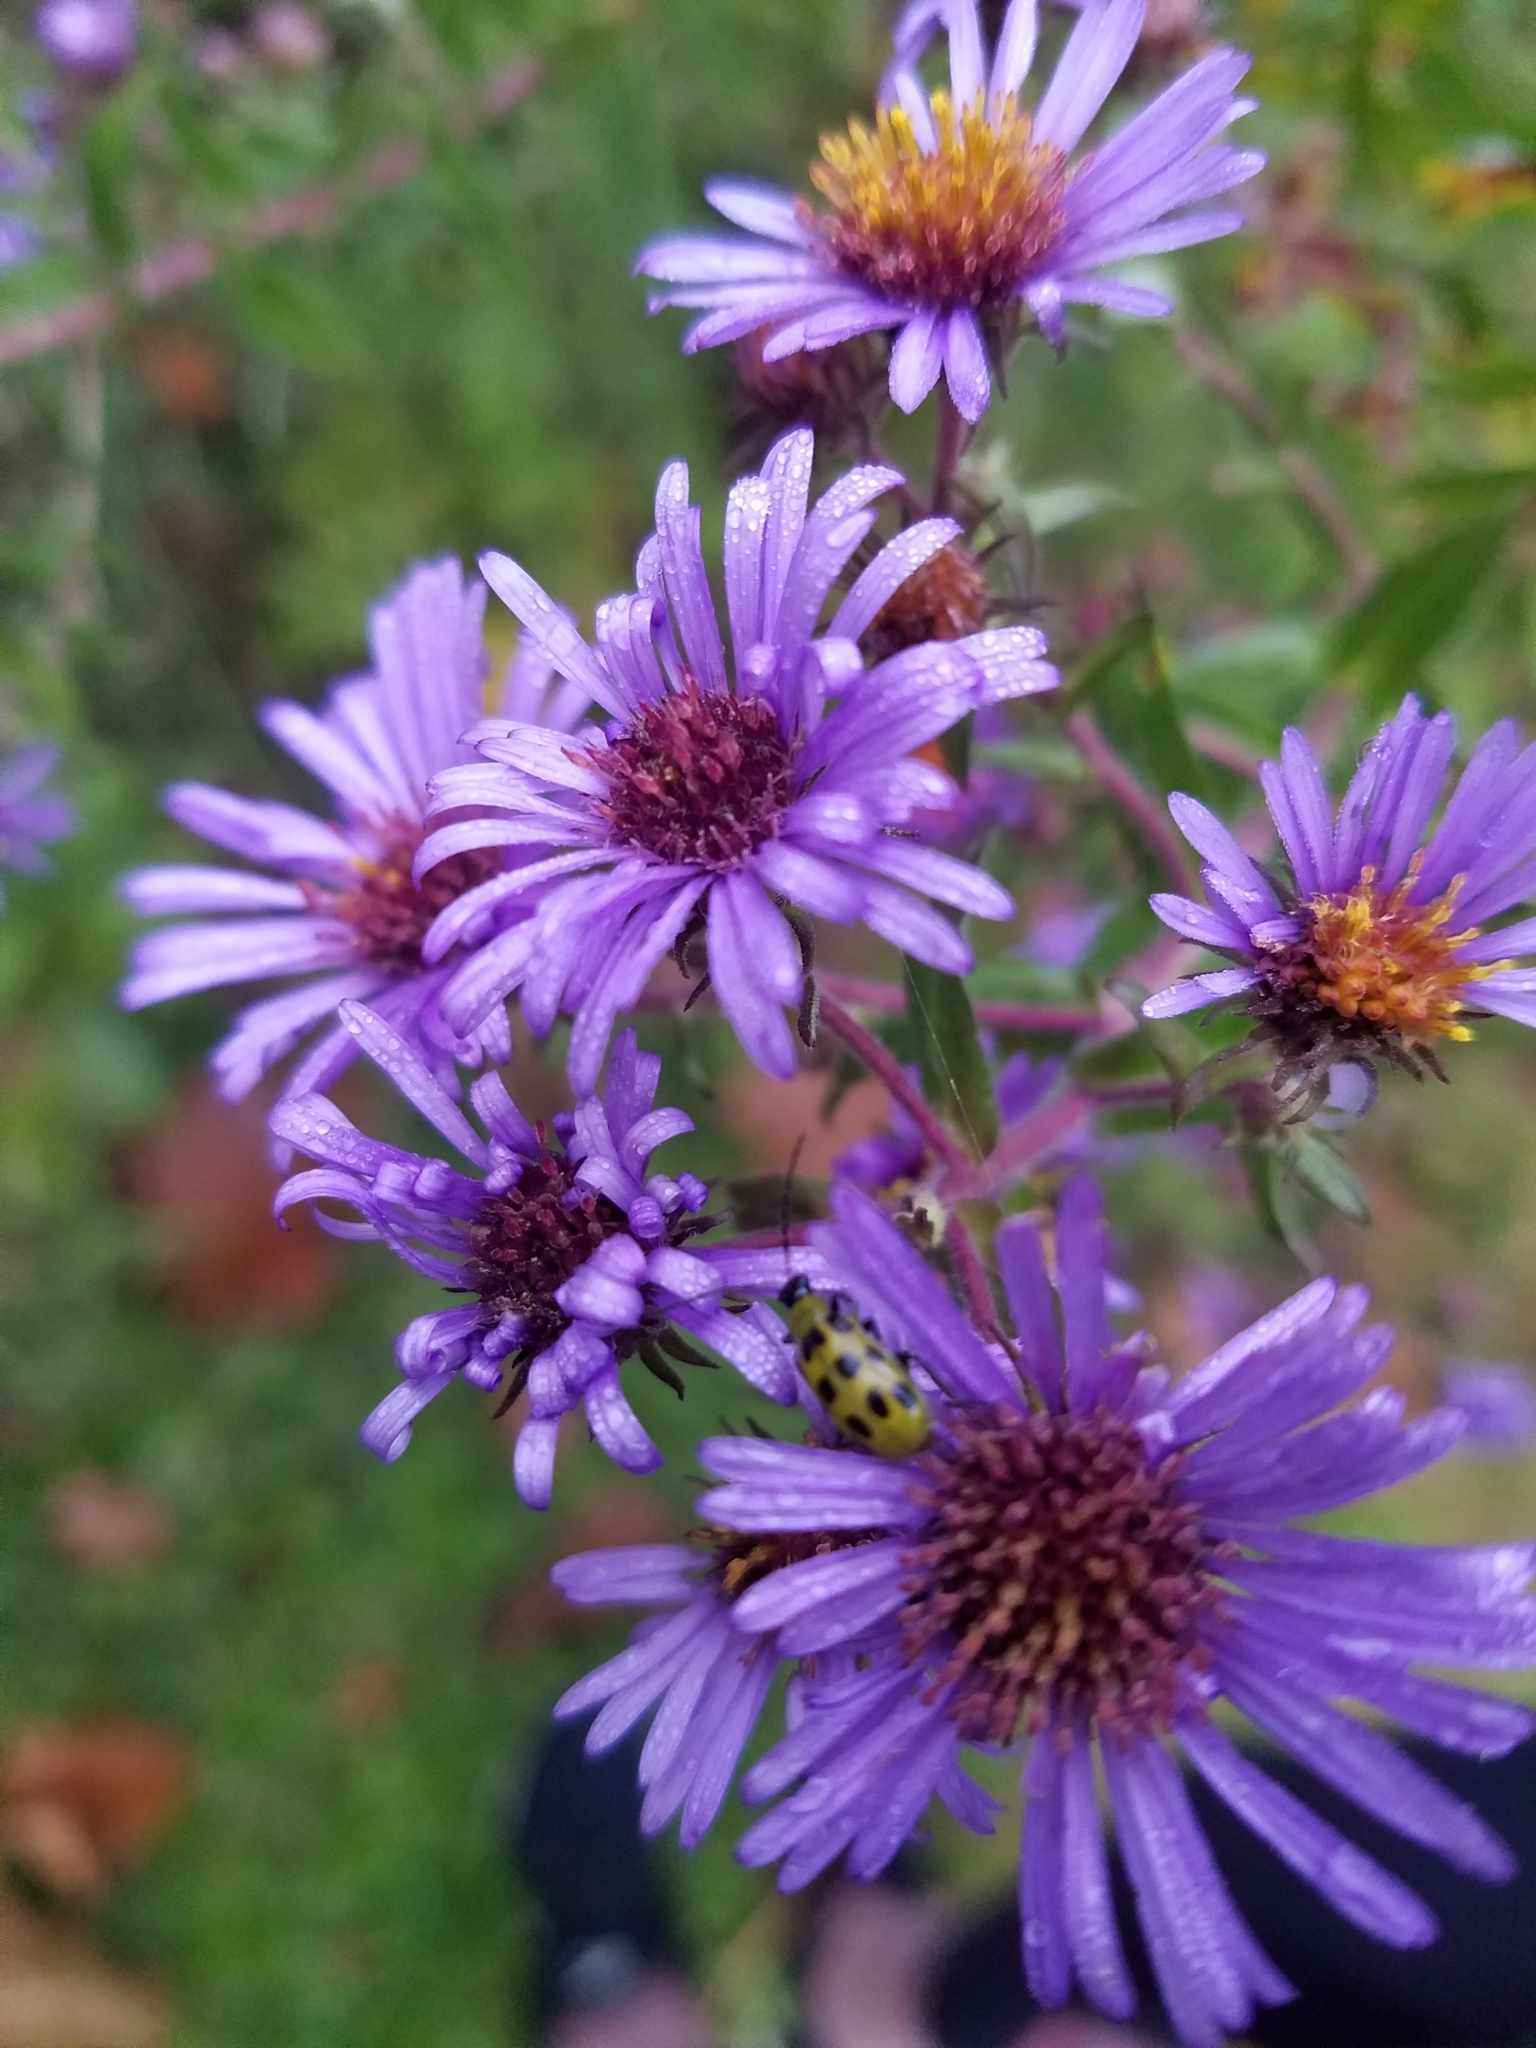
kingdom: Plantae
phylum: Tracheophyta
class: Magnoliopsida
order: Asterales
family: Asteraceae
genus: Symphyotrichum
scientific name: Symphyotrichum novae-angliae
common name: Michaelmas daisy
